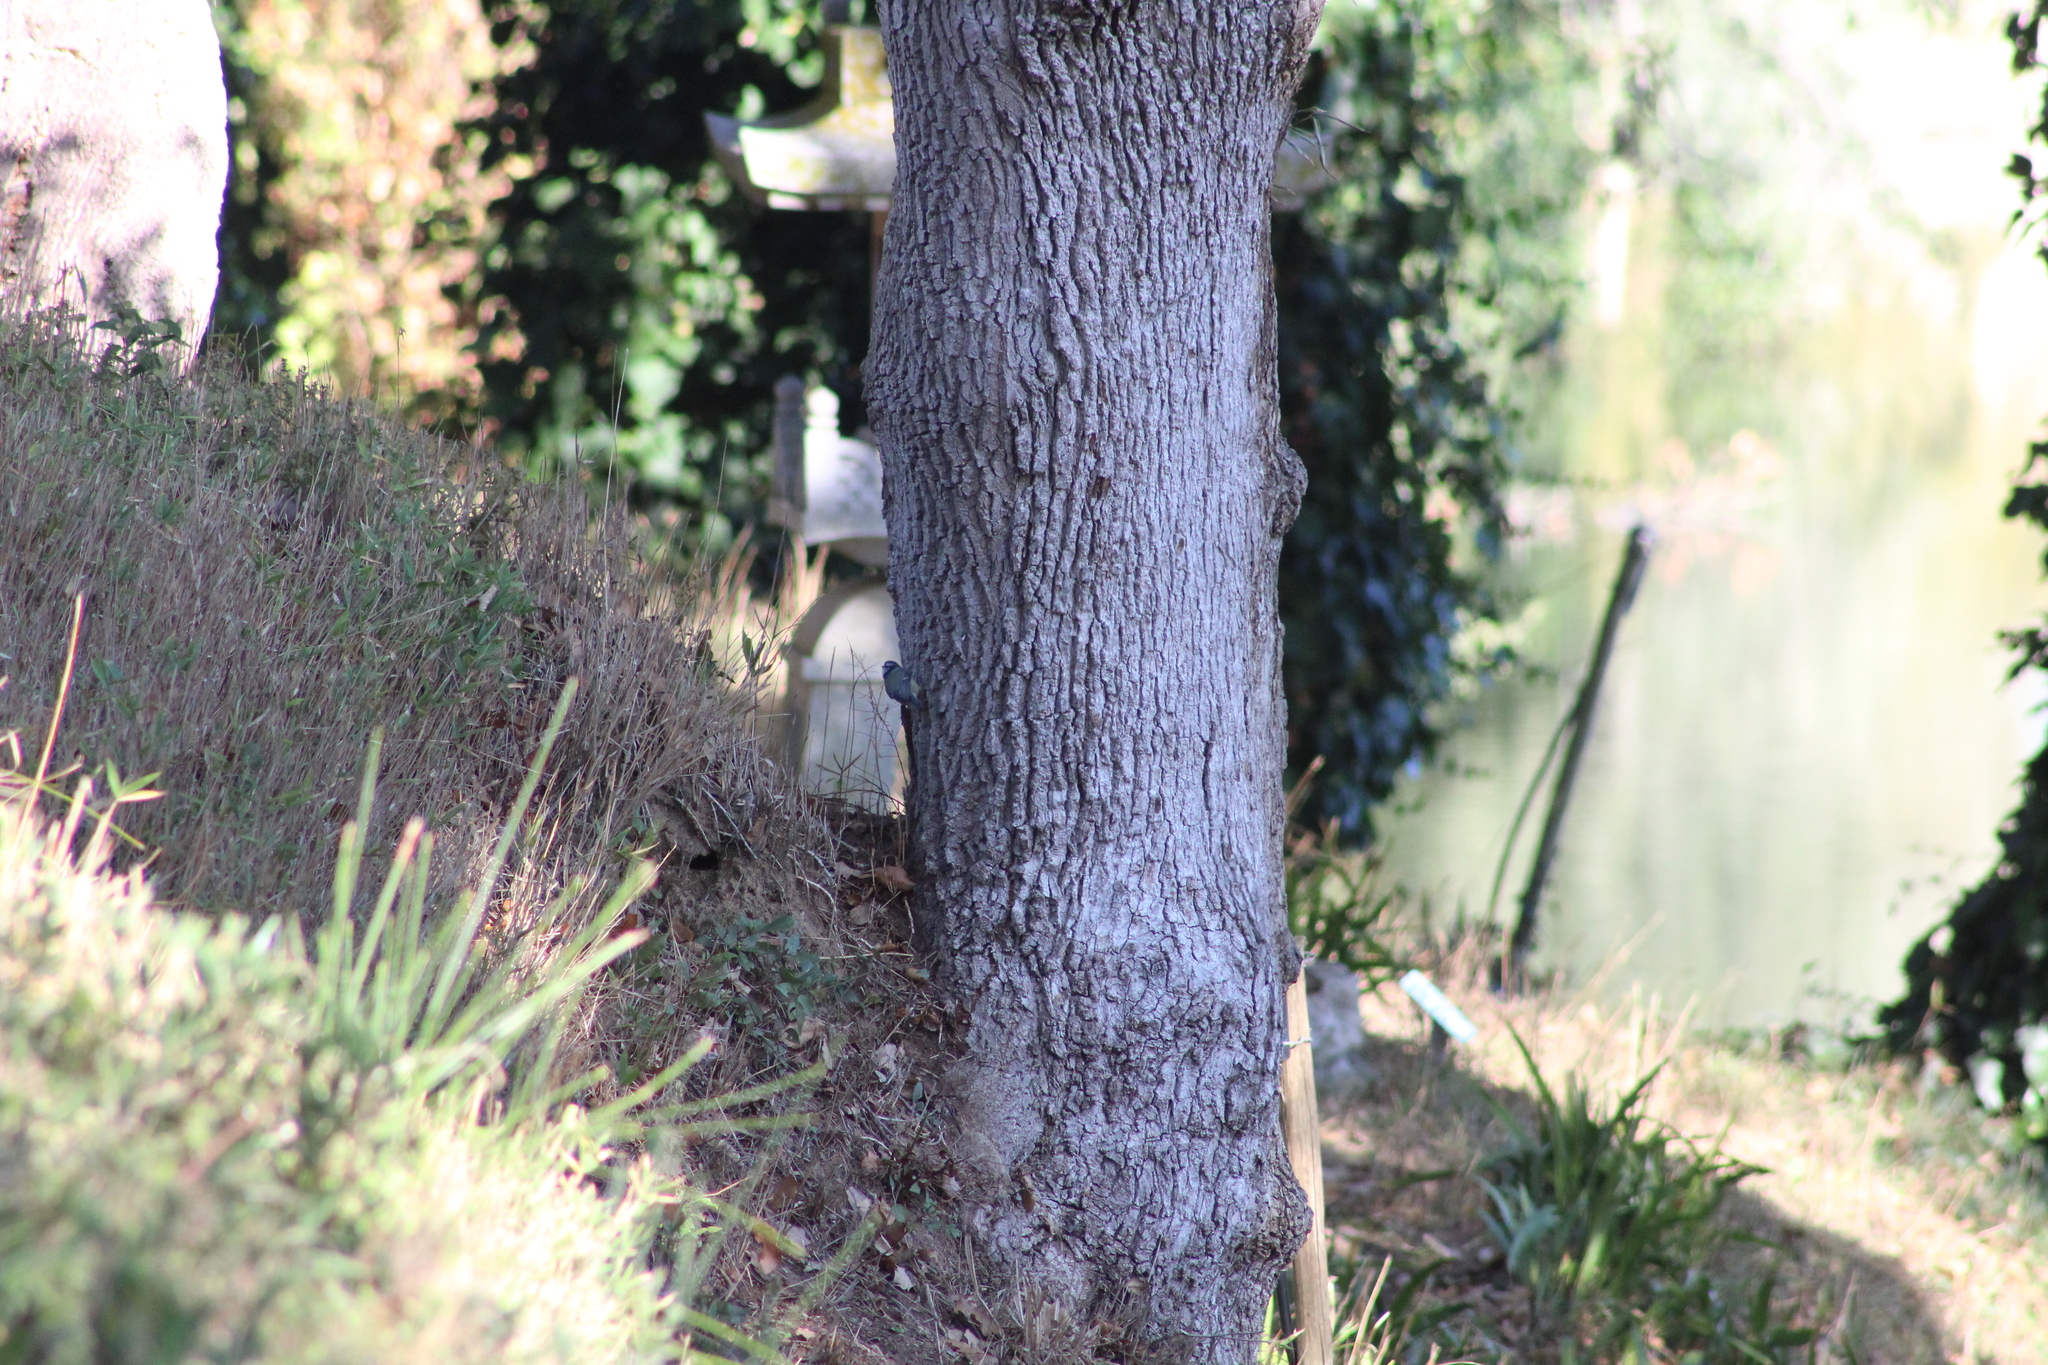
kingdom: Animalia
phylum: Chordata
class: Aves
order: Passeriformes
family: Paridae
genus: Cyanistes
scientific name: Cyanistes caeruleus
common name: Eurasian blue tit
